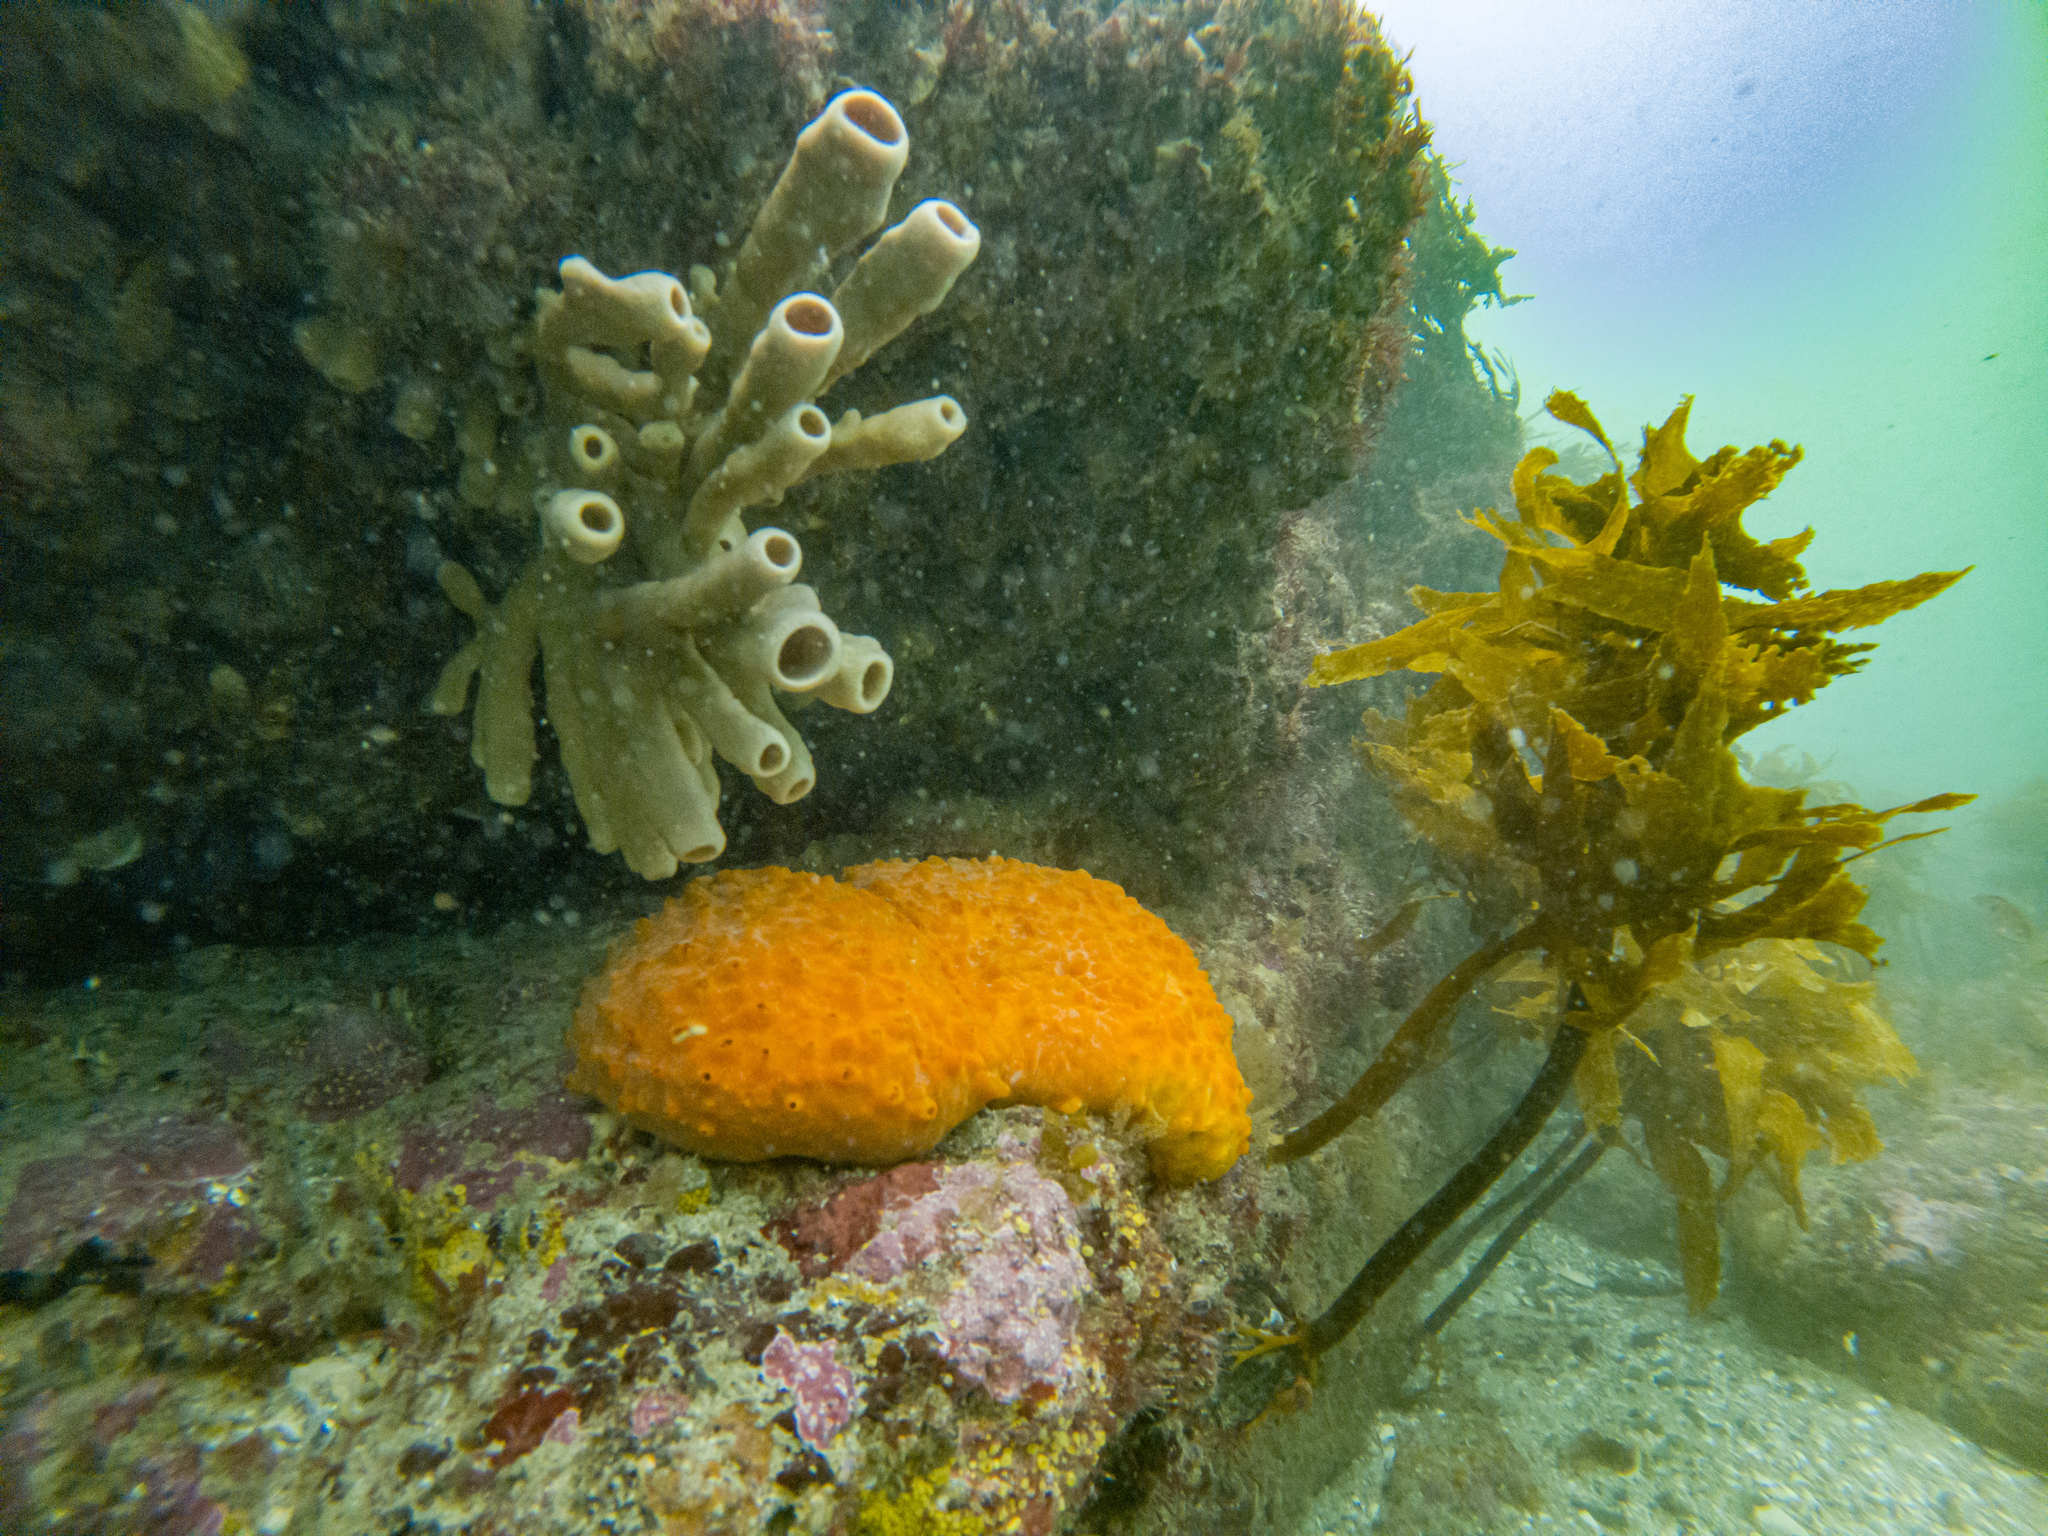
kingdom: Animalia
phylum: Porifera
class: Demospongiae
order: Haplosclerida
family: Callyspongiidae
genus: Callyspongia
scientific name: Callyspongia annulata
